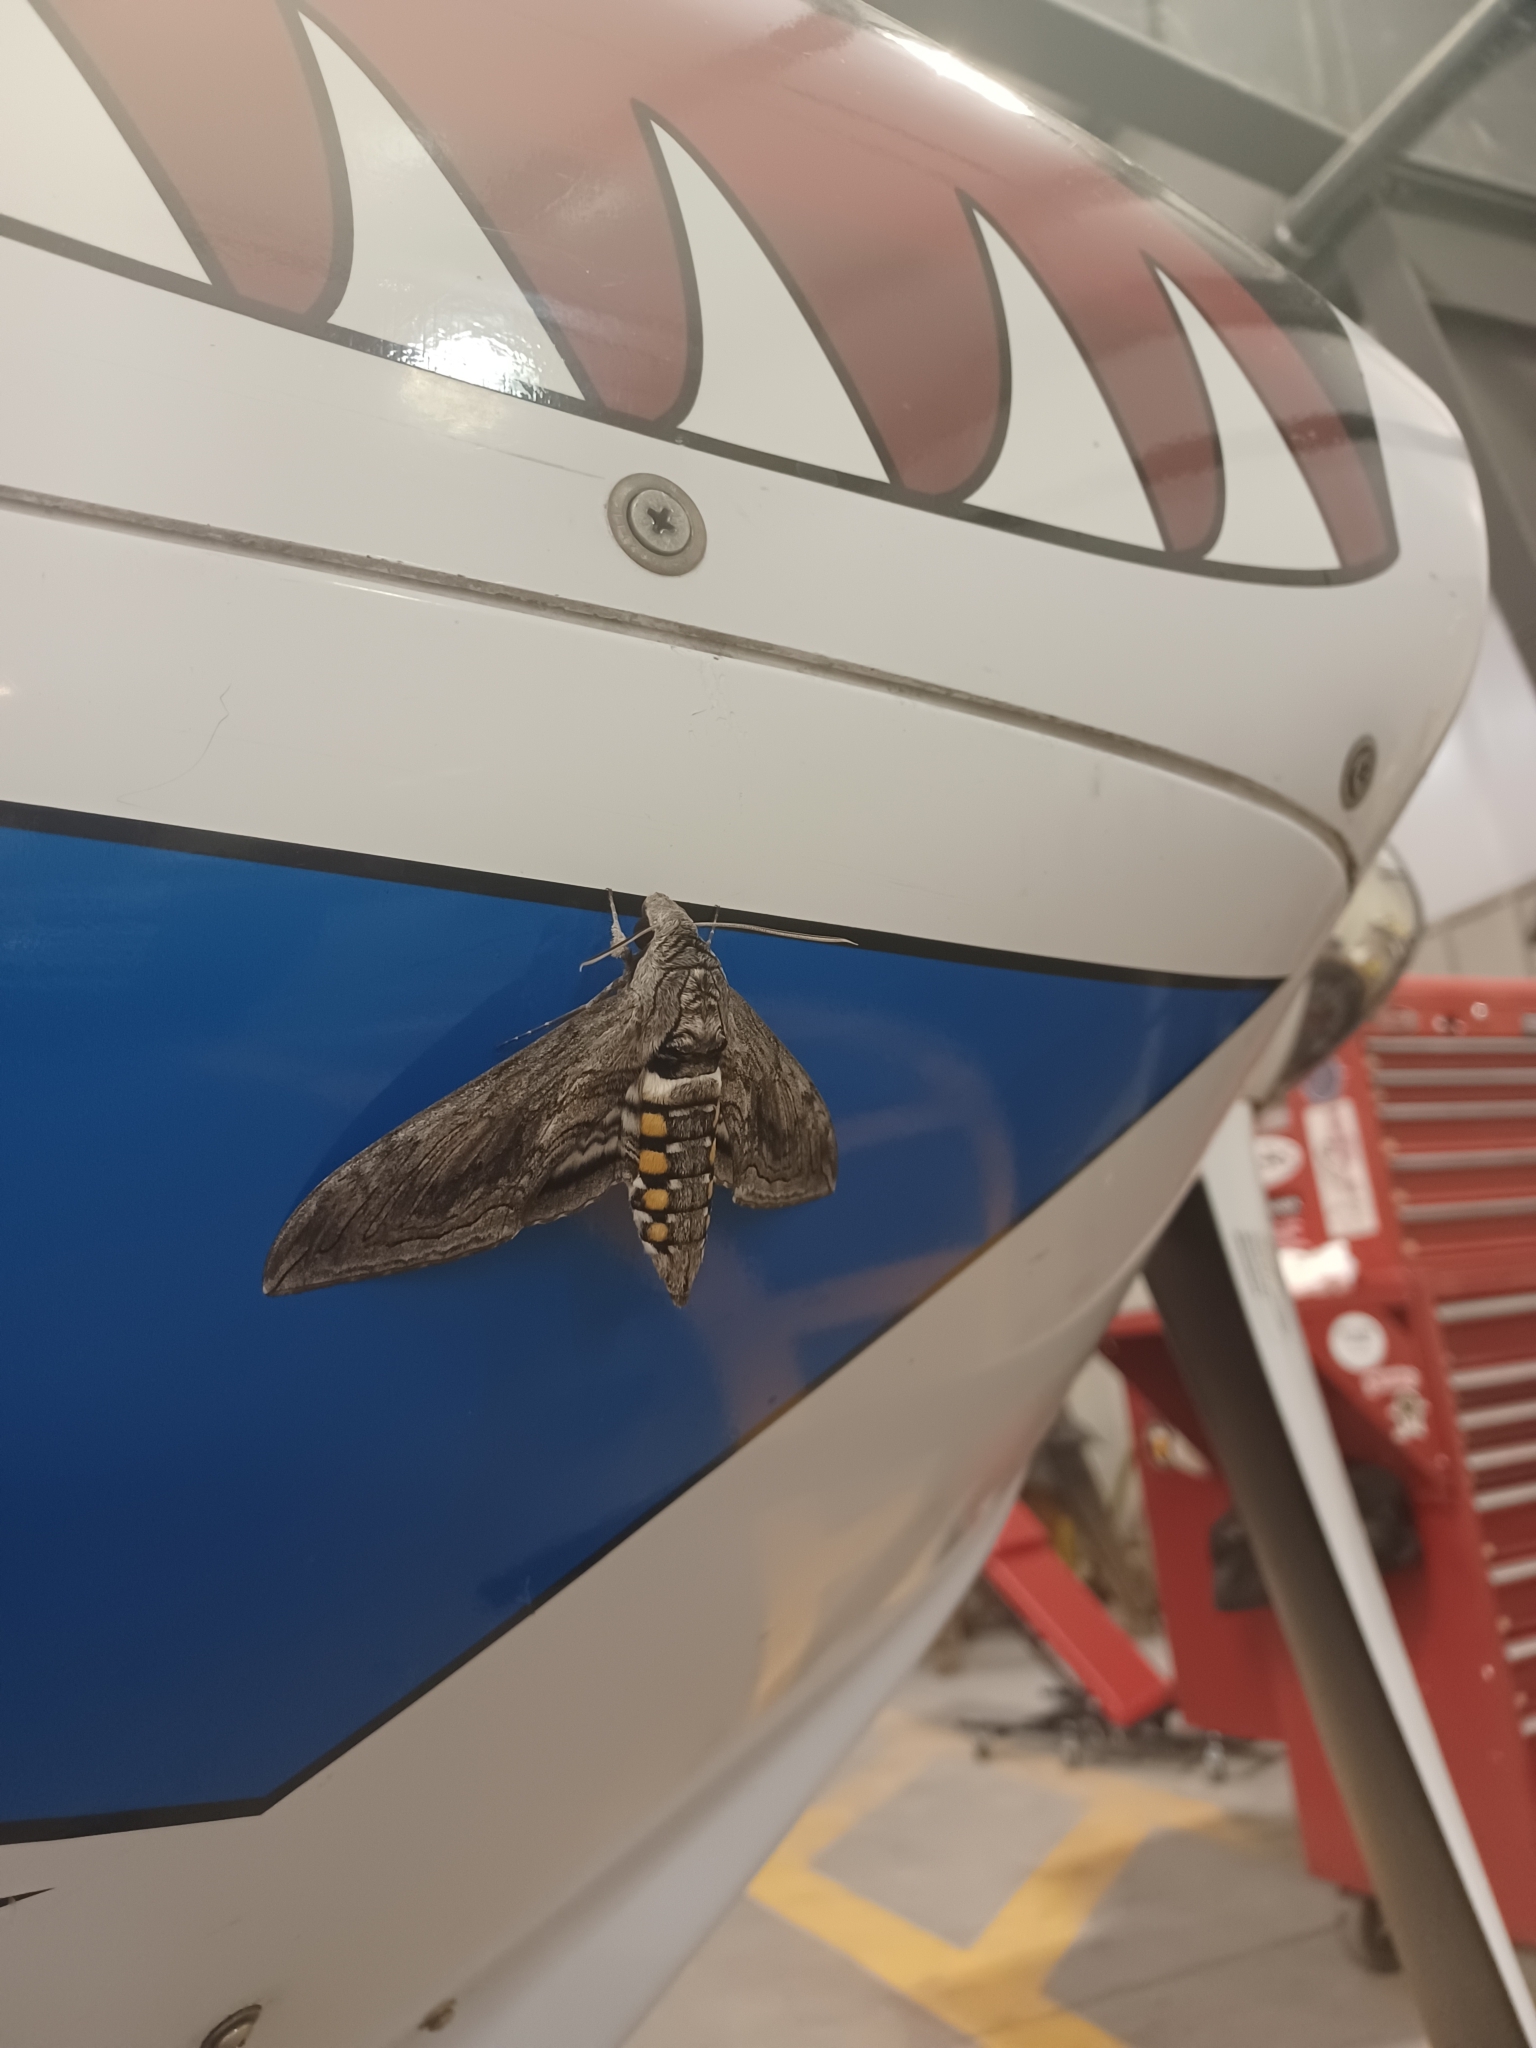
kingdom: Animalia
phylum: Arthropoda
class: Insecta
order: Lepidoptera
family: Sphingidae
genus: Manduca
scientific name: Manduca quinquemaculatus
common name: Five-spotted hawk-moth
